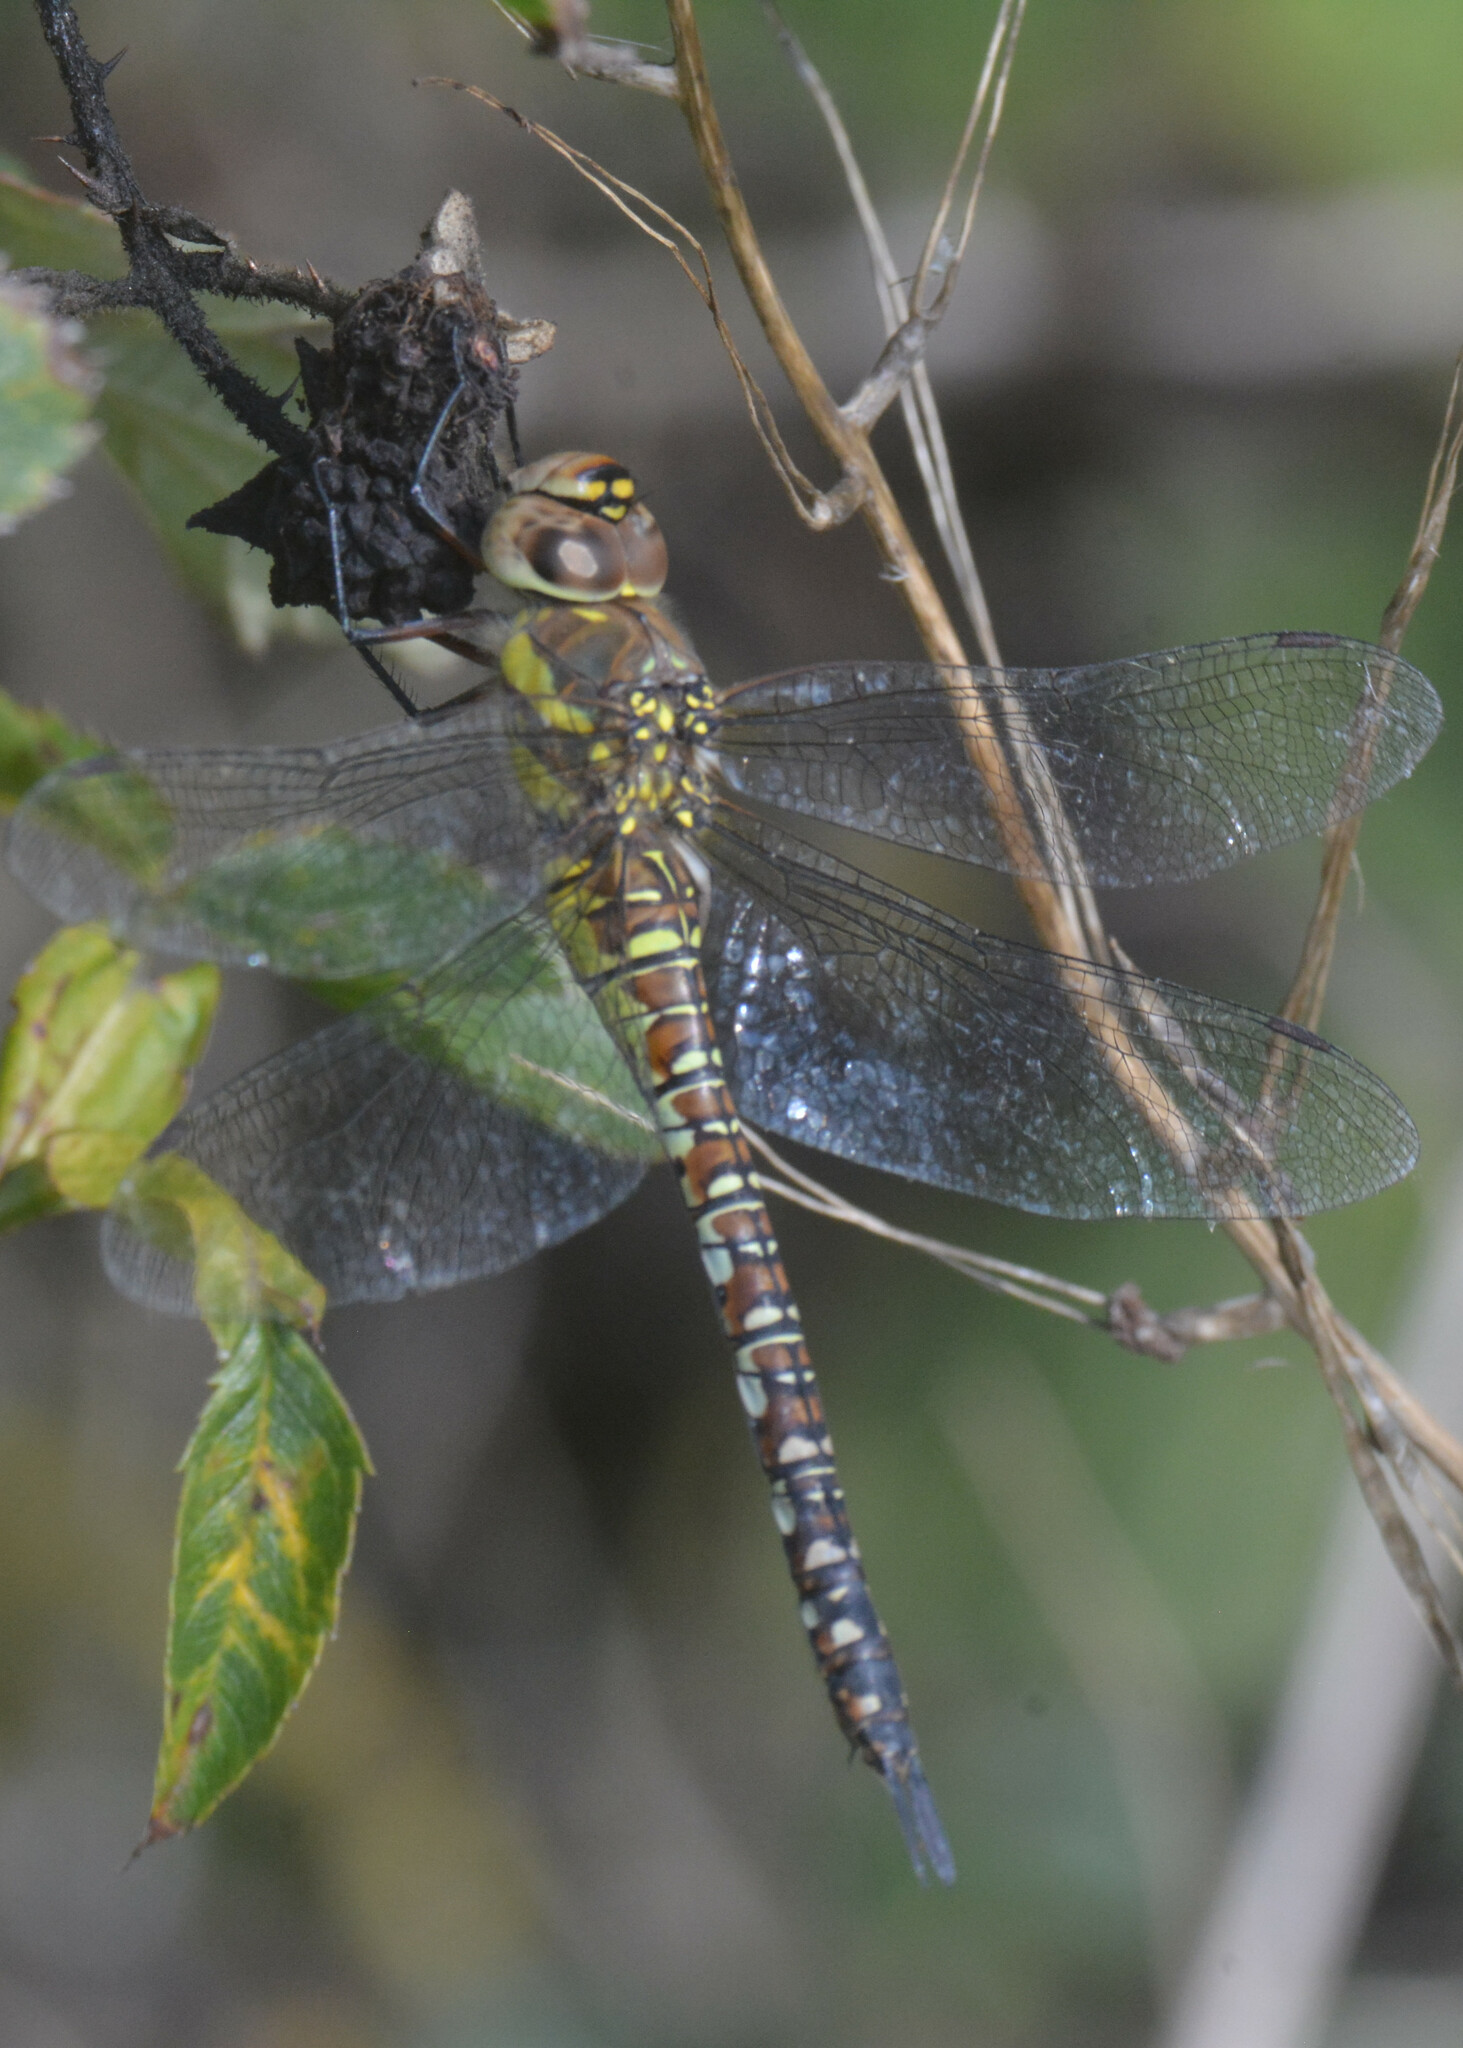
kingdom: Animalia
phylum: Arthropoda
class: Insecta
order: Odonata
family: Aeshnidae
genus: Aeshna
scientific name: Aeshna mixta
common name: Migrant hawker
